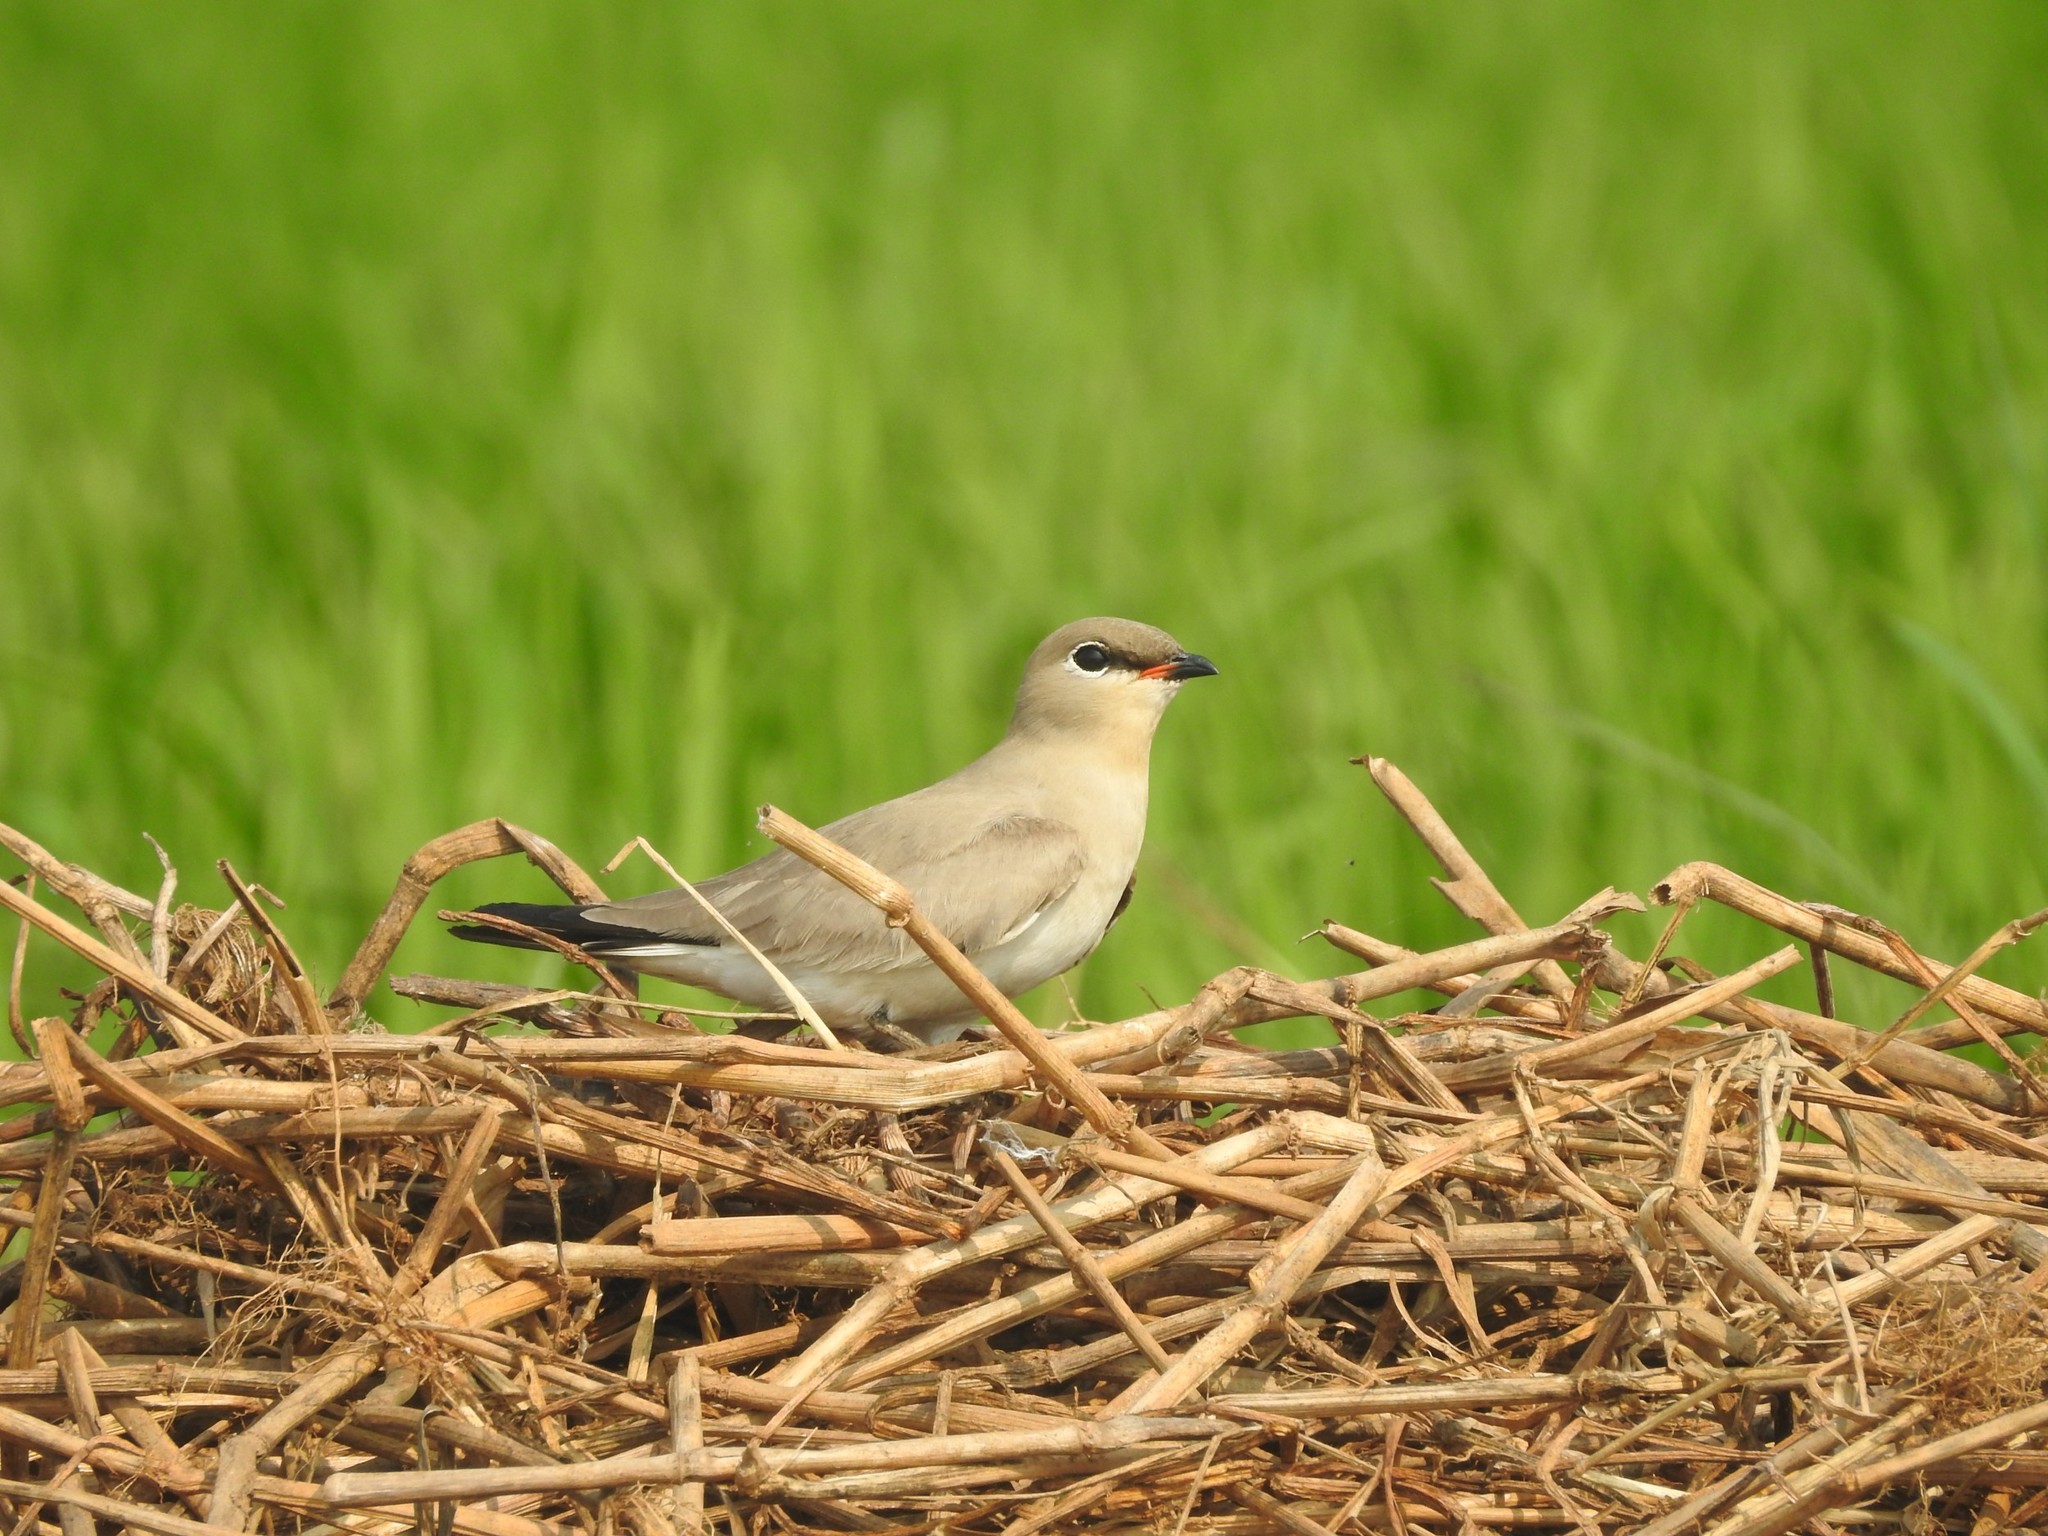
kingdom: Animalia
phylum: Chordata
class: Aves
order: Charadriiformes
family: Glareolidae
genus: Glareola
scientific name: Glareola lactea
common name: Small pratincole
